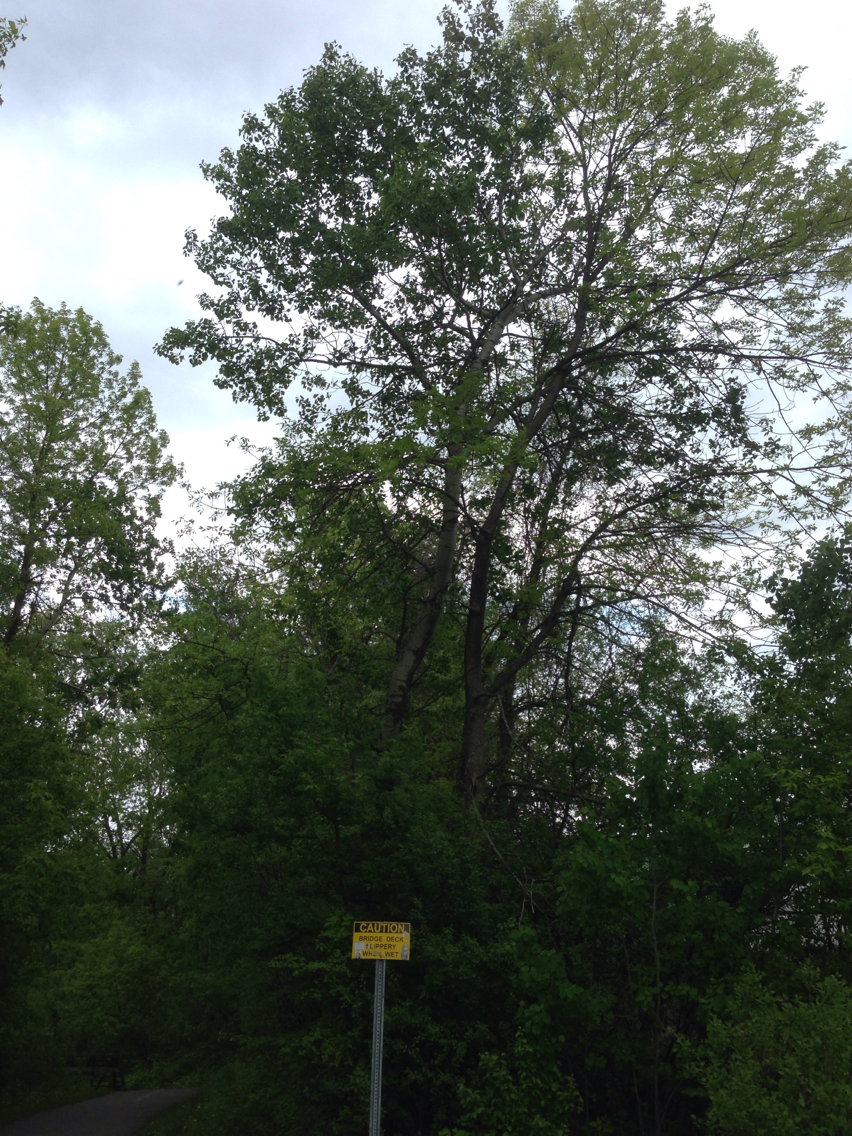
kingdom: Plantae
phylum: Tracheophyta
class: Magnoliopsida
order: Malpighiales
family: Salicaceae
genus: Populus
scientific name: Populus tremuloides
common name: Quaking aspen
